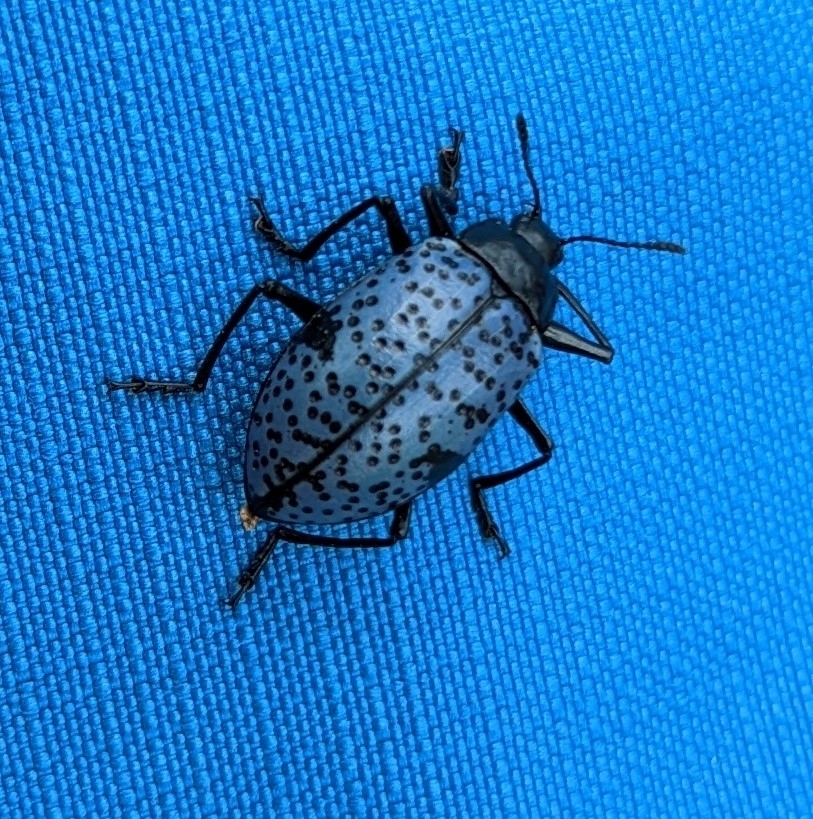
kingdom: Animalia
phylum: Arthropoda
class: Insecta
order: Coleoptera
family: Erotylidae
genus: Gibbifer
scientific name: Gibbifer californicus
